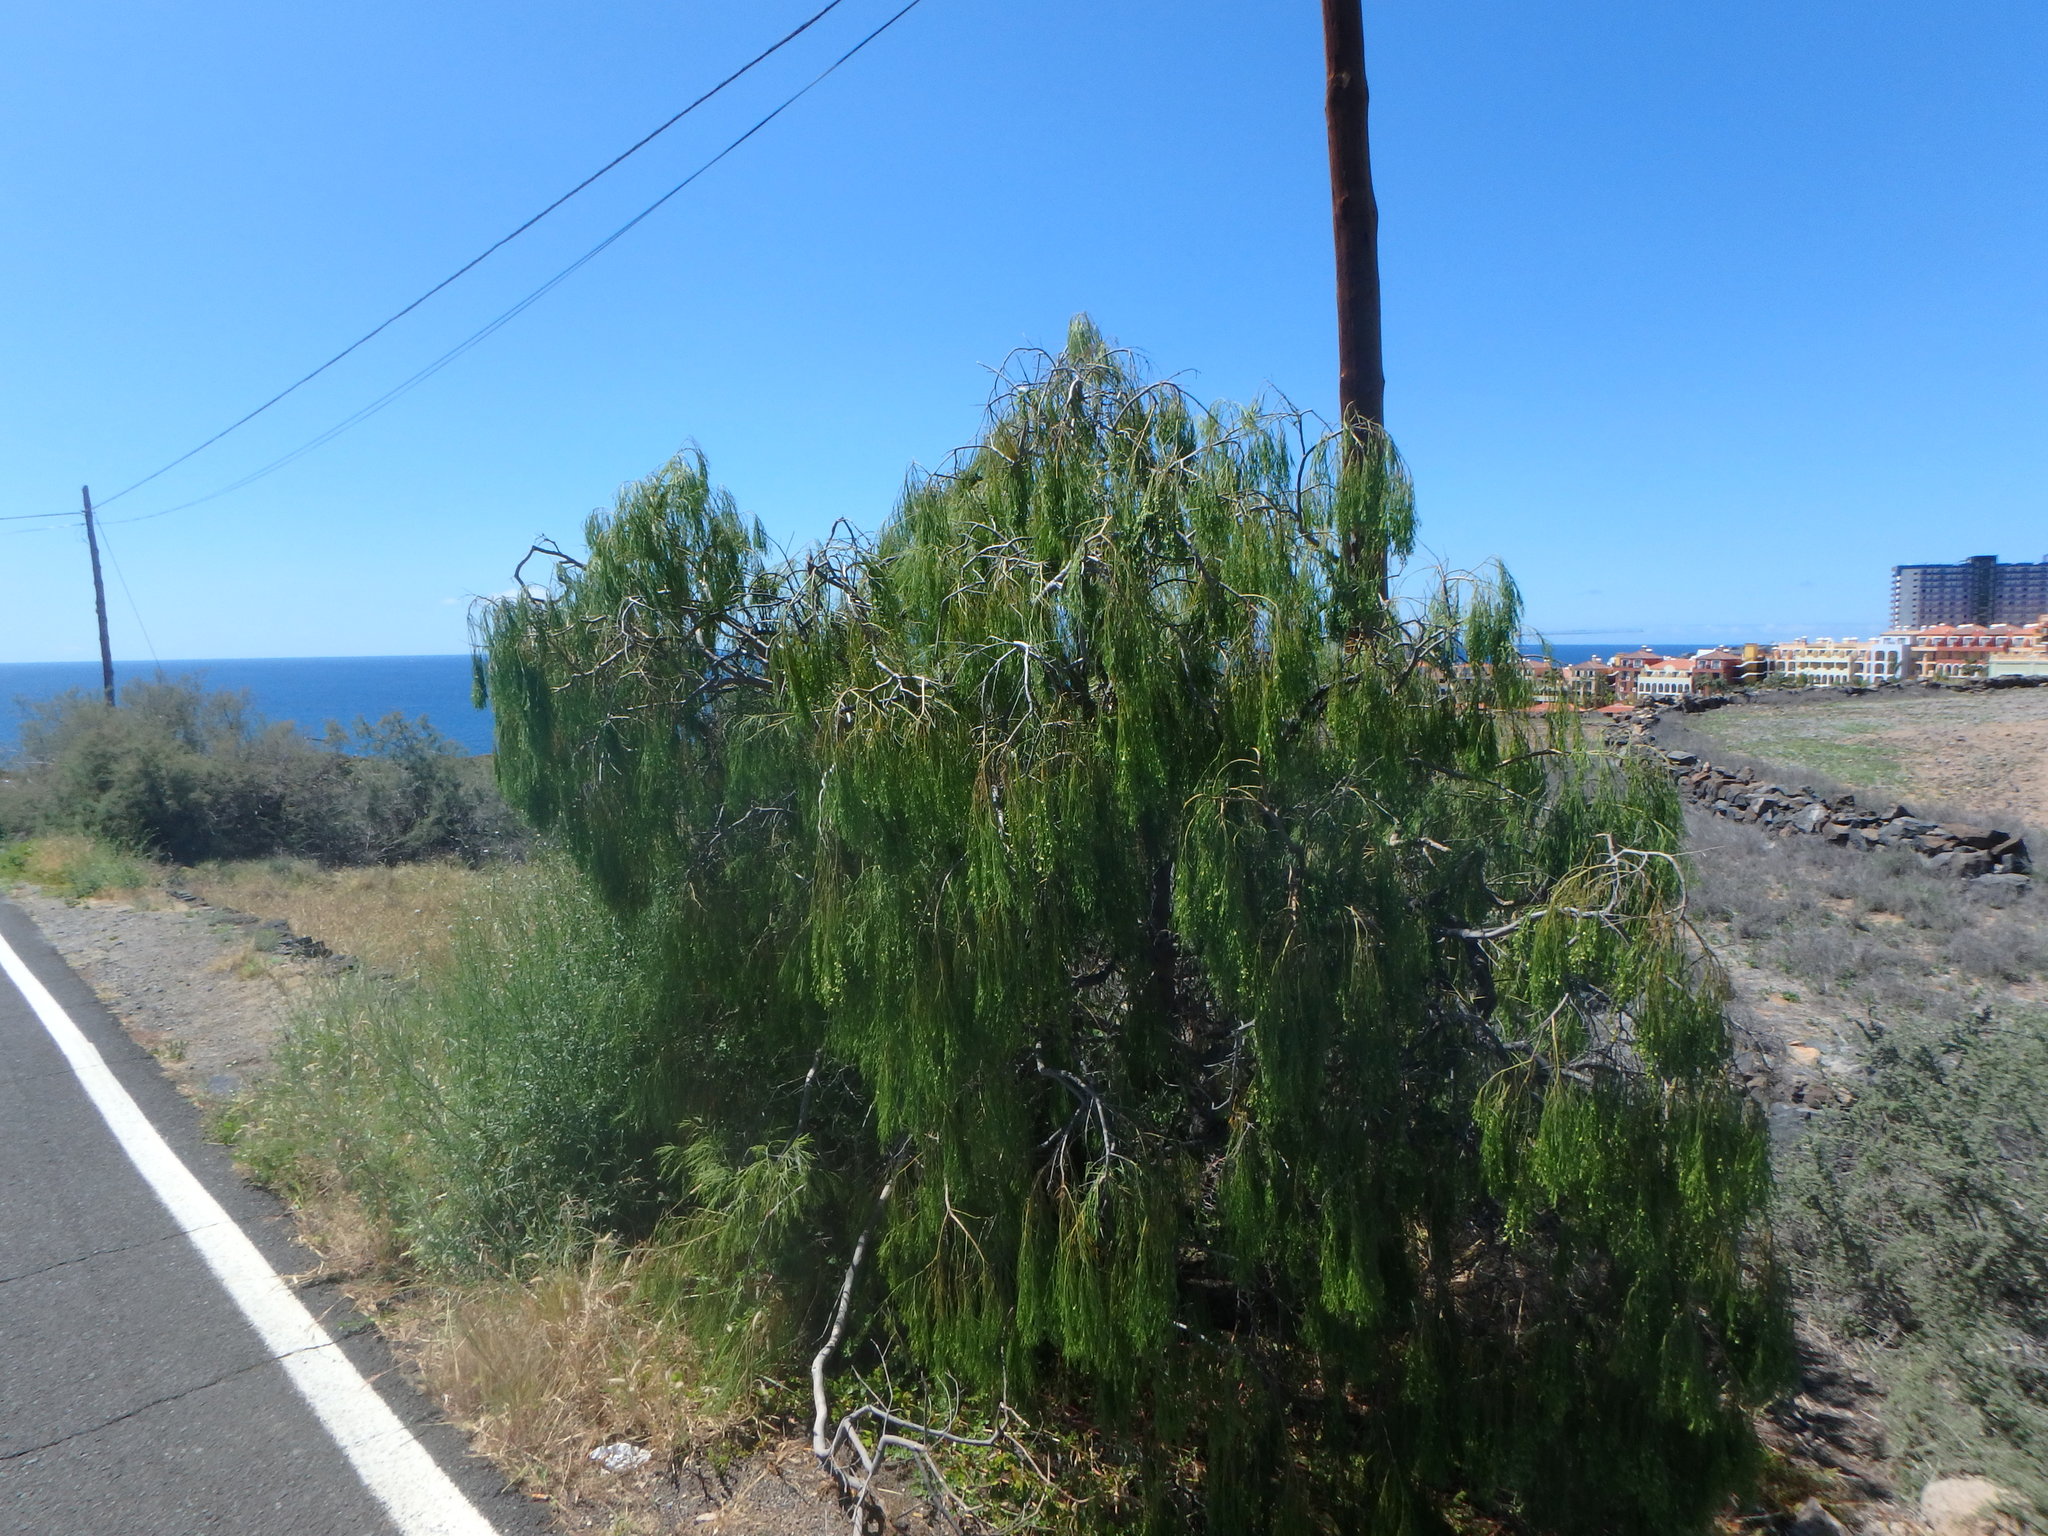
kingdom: Plantae
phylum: Tracheophyta
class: Magnoliopsida
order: Gentianales
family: Rubiaceae
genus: Plocama
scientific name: Plocama pendula
